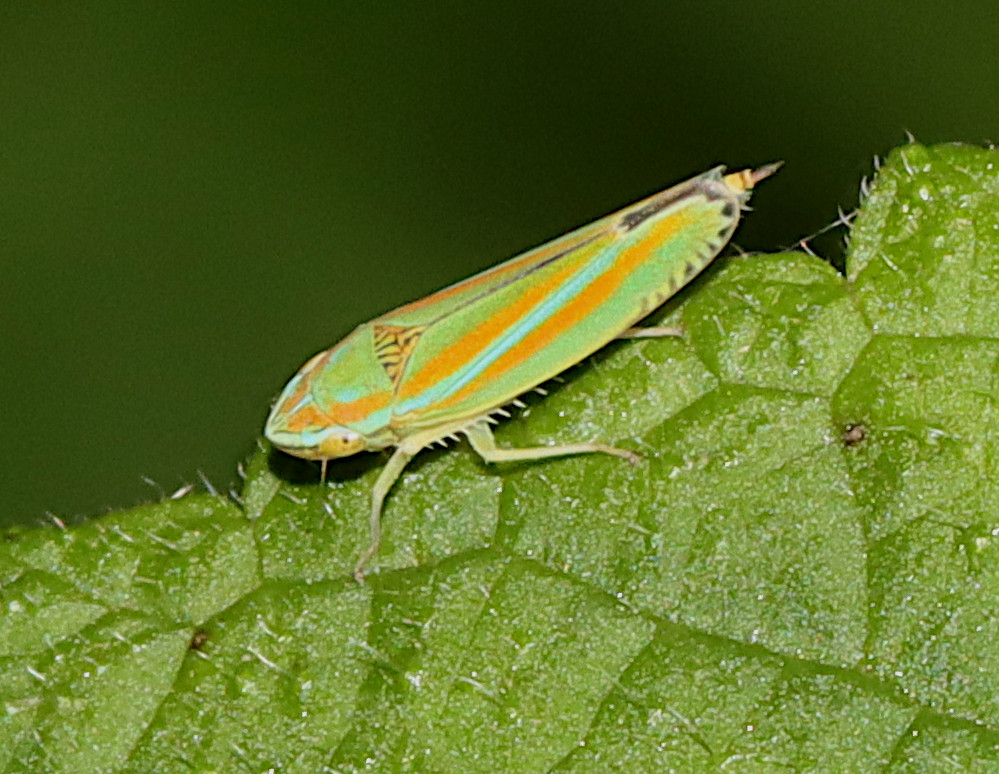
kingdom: Animalia
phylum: Arthropoda
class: Insecta
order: Hemiptera
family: Cicadellidae
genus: Graphocephala
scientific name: Graphocephala versuta
